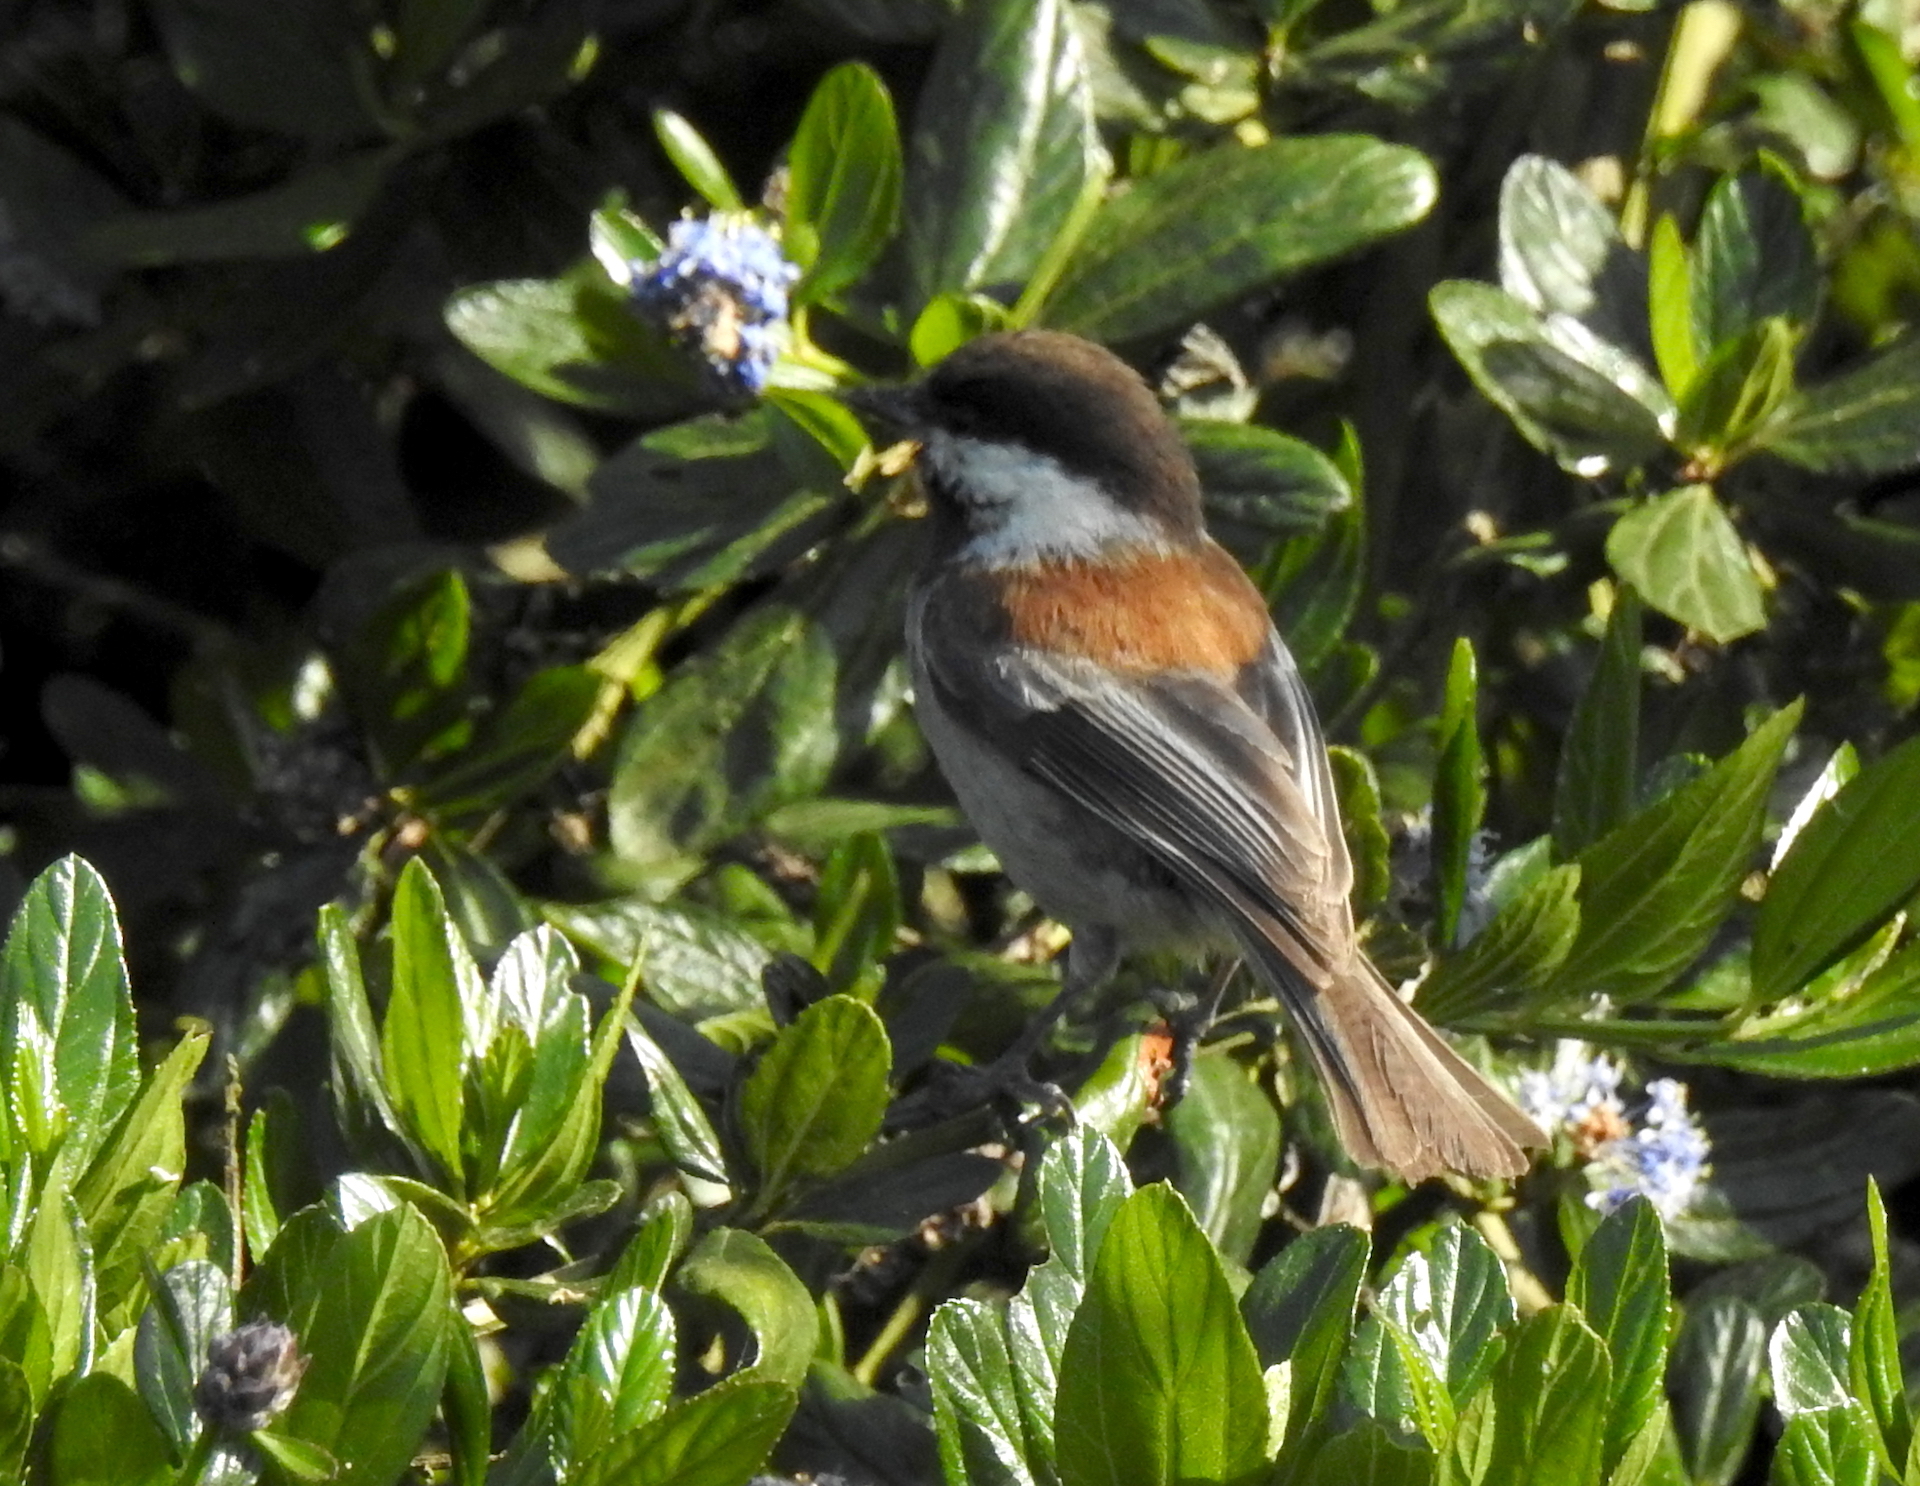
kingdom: Animalia
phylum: Chordata
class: Aves
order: Passeriformes
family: Paridae
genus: Poecile
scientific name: Poecile rufescens
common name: Chestnut-backed chickadee
